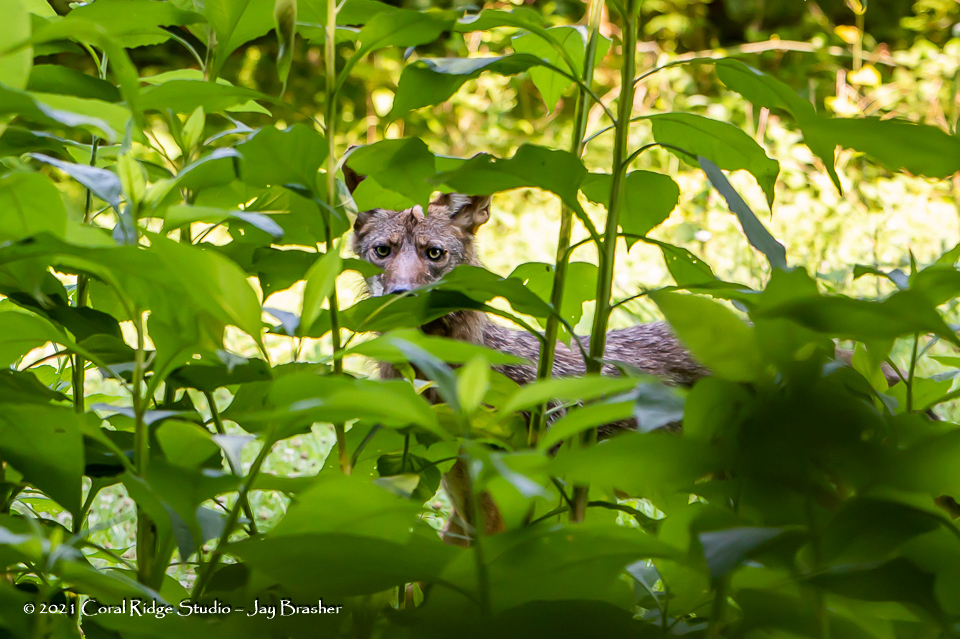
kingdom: Animalia
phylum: Chordata
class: Mammalia
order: Carnivora
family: Canidae
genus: Canis
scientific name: Canis latrans
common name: Coyote
